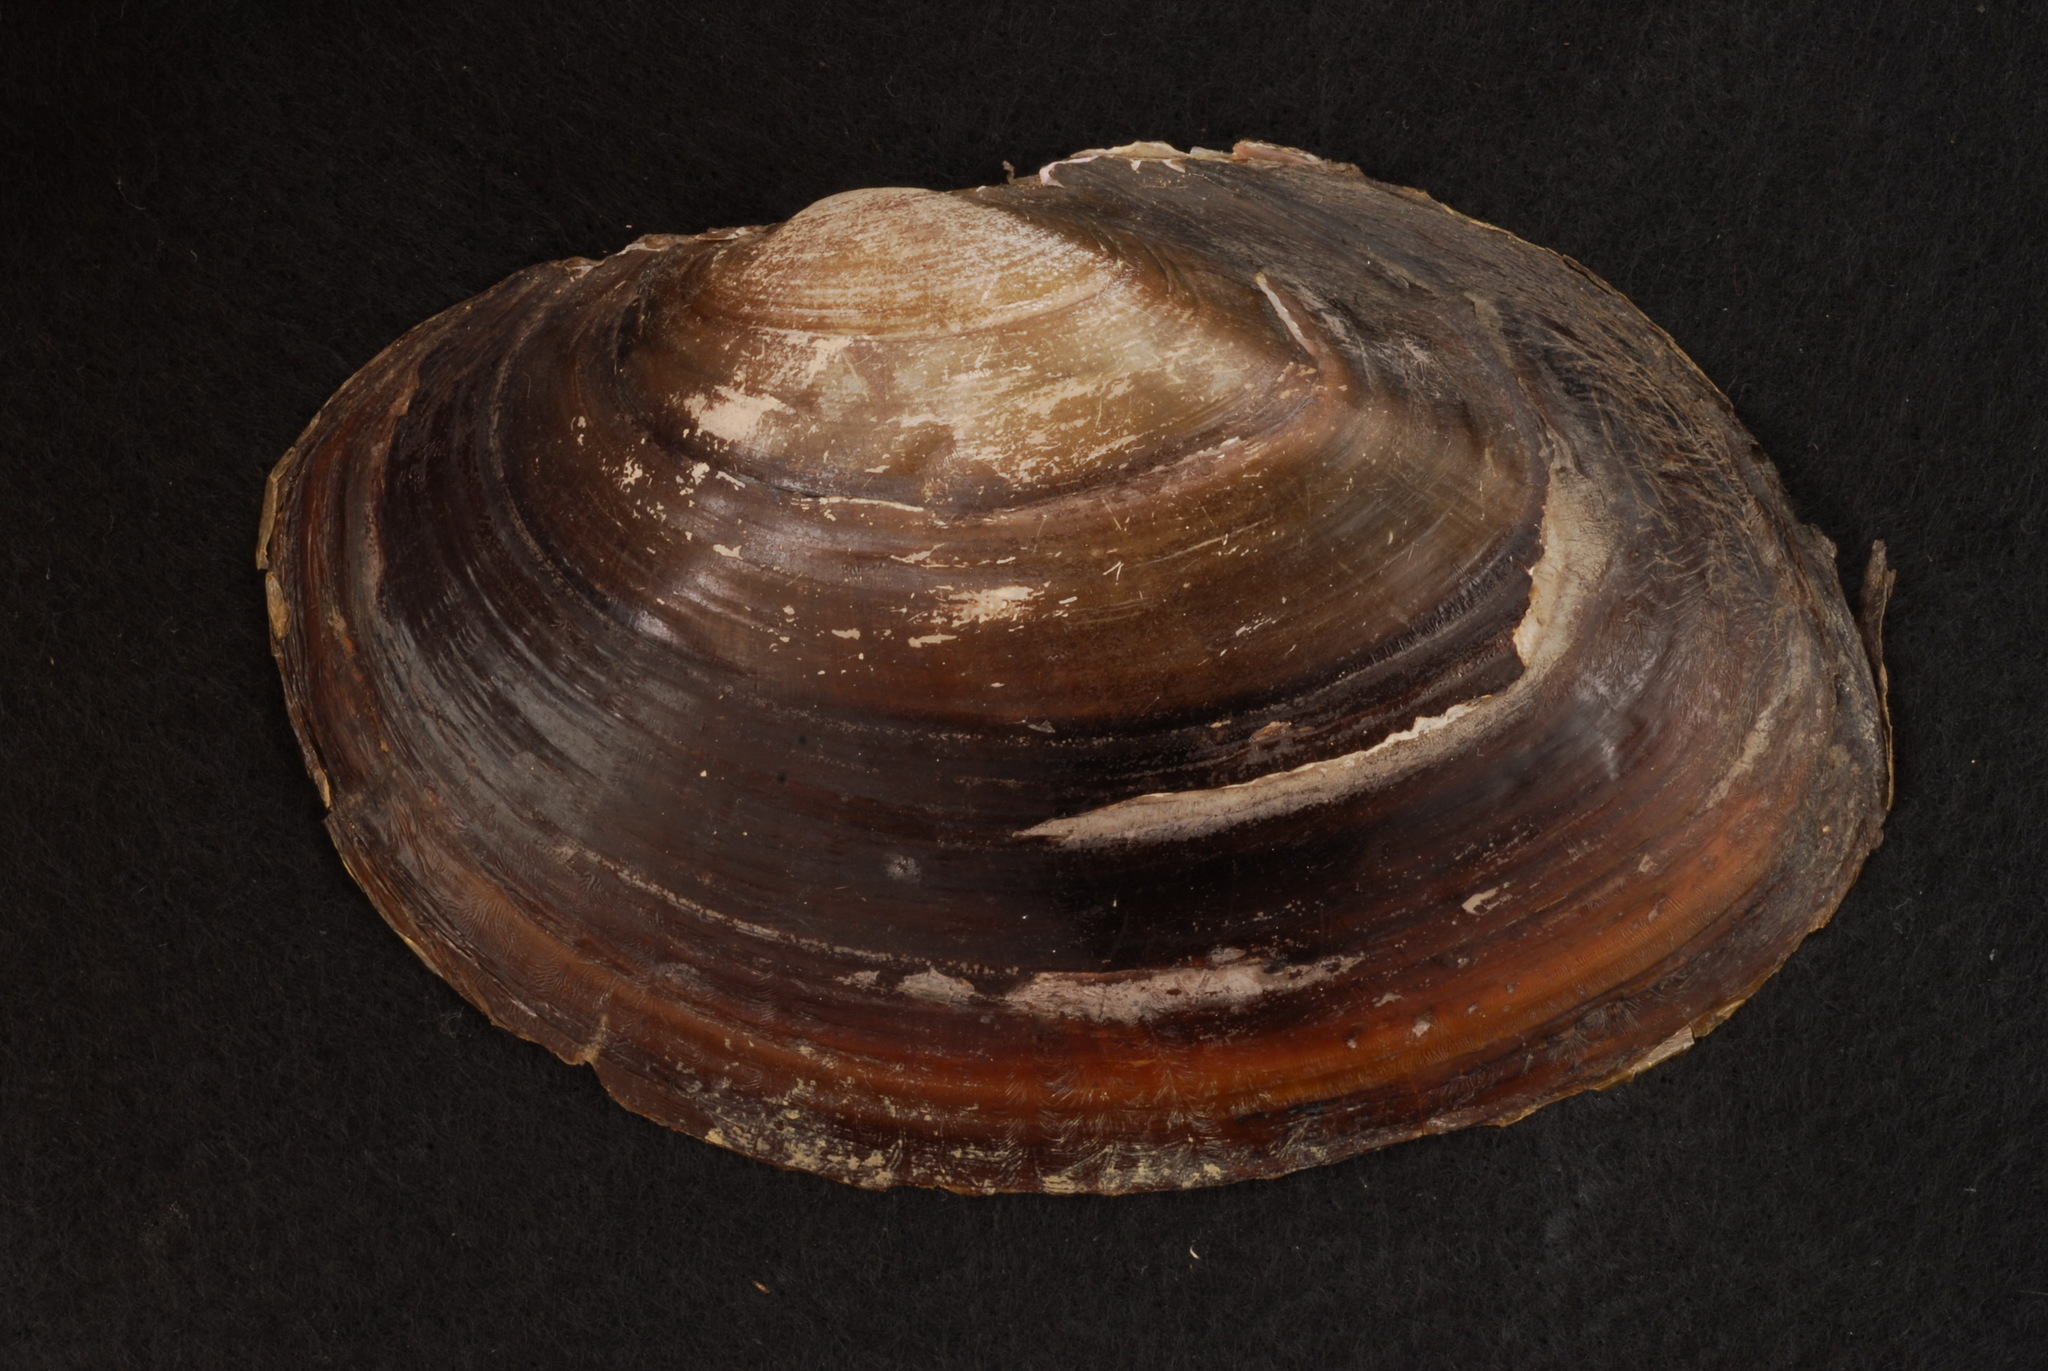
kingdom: Animalia
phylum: Mollusca
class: Bivalvia
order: Unionida
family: Unionidae
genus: Potamilus
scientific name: Potamilus amphichaenus
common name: Texas heelsplitter
